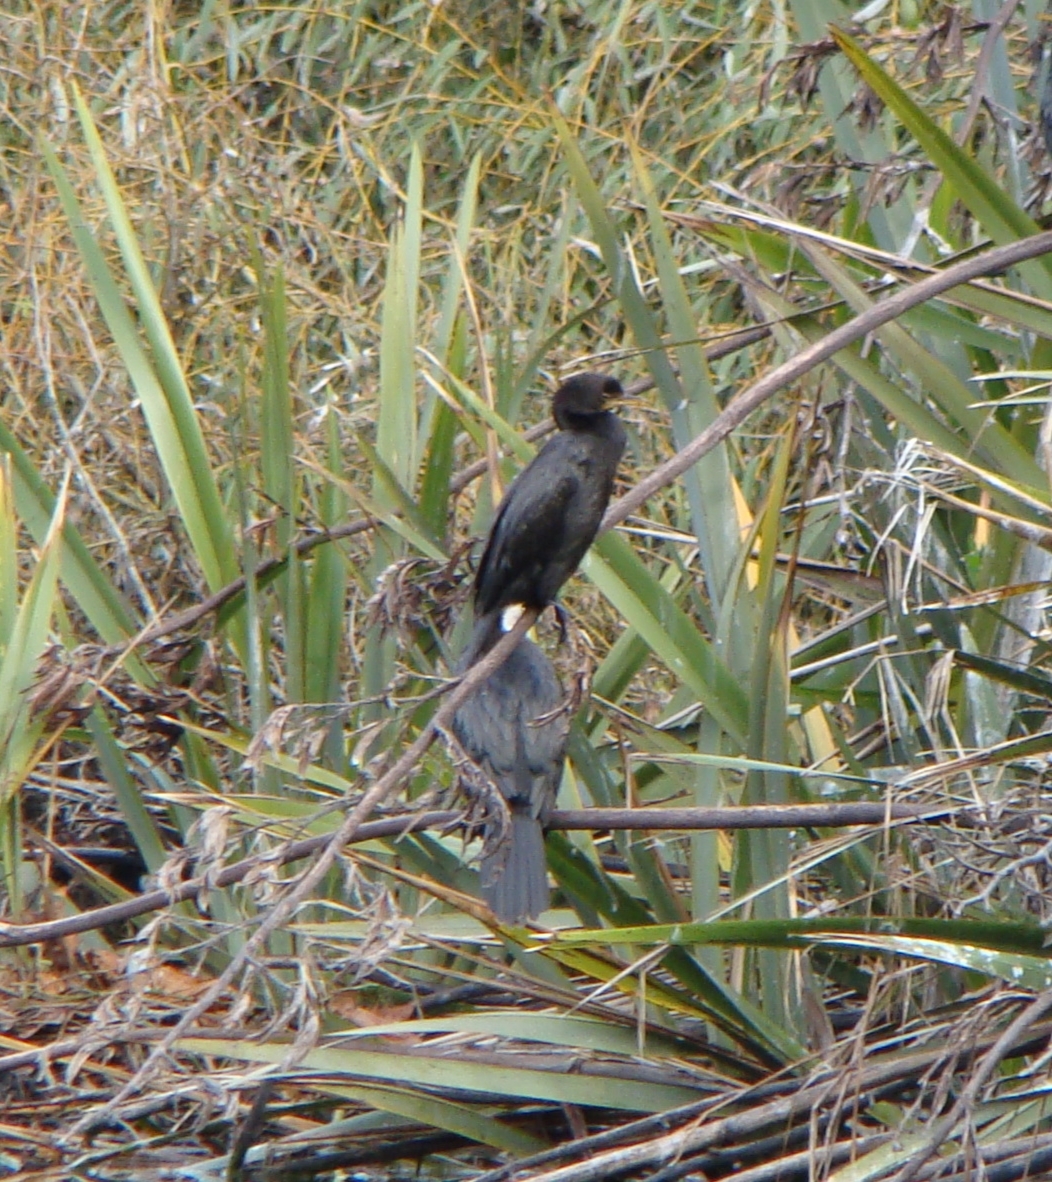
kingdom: Animalia
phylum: Chordata
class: Aves
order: Suliformes
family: Phalacrocoracidae
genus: Microcarbo
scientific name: Microcarbo melanoleucos
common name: Little pied cormorant
